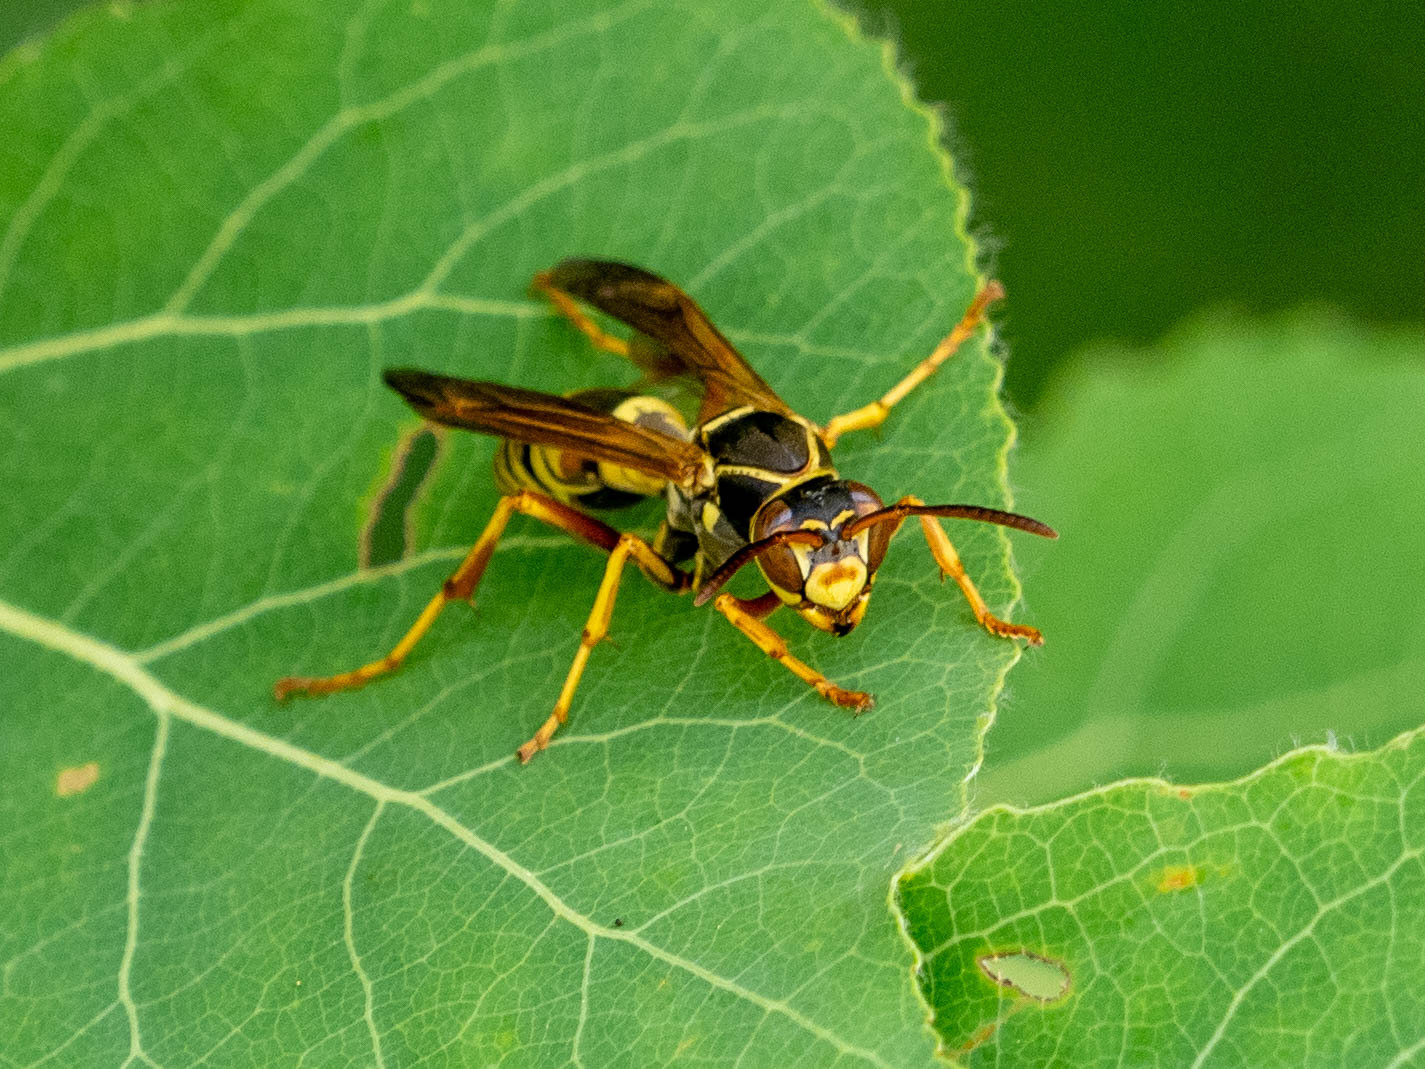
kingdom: Animalia
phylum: Arthropoda
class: Insecta
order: Hymenoptera
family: Eumenidae
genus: Polistes
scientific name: Polistes fuscatus
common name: Dark paper wasp
